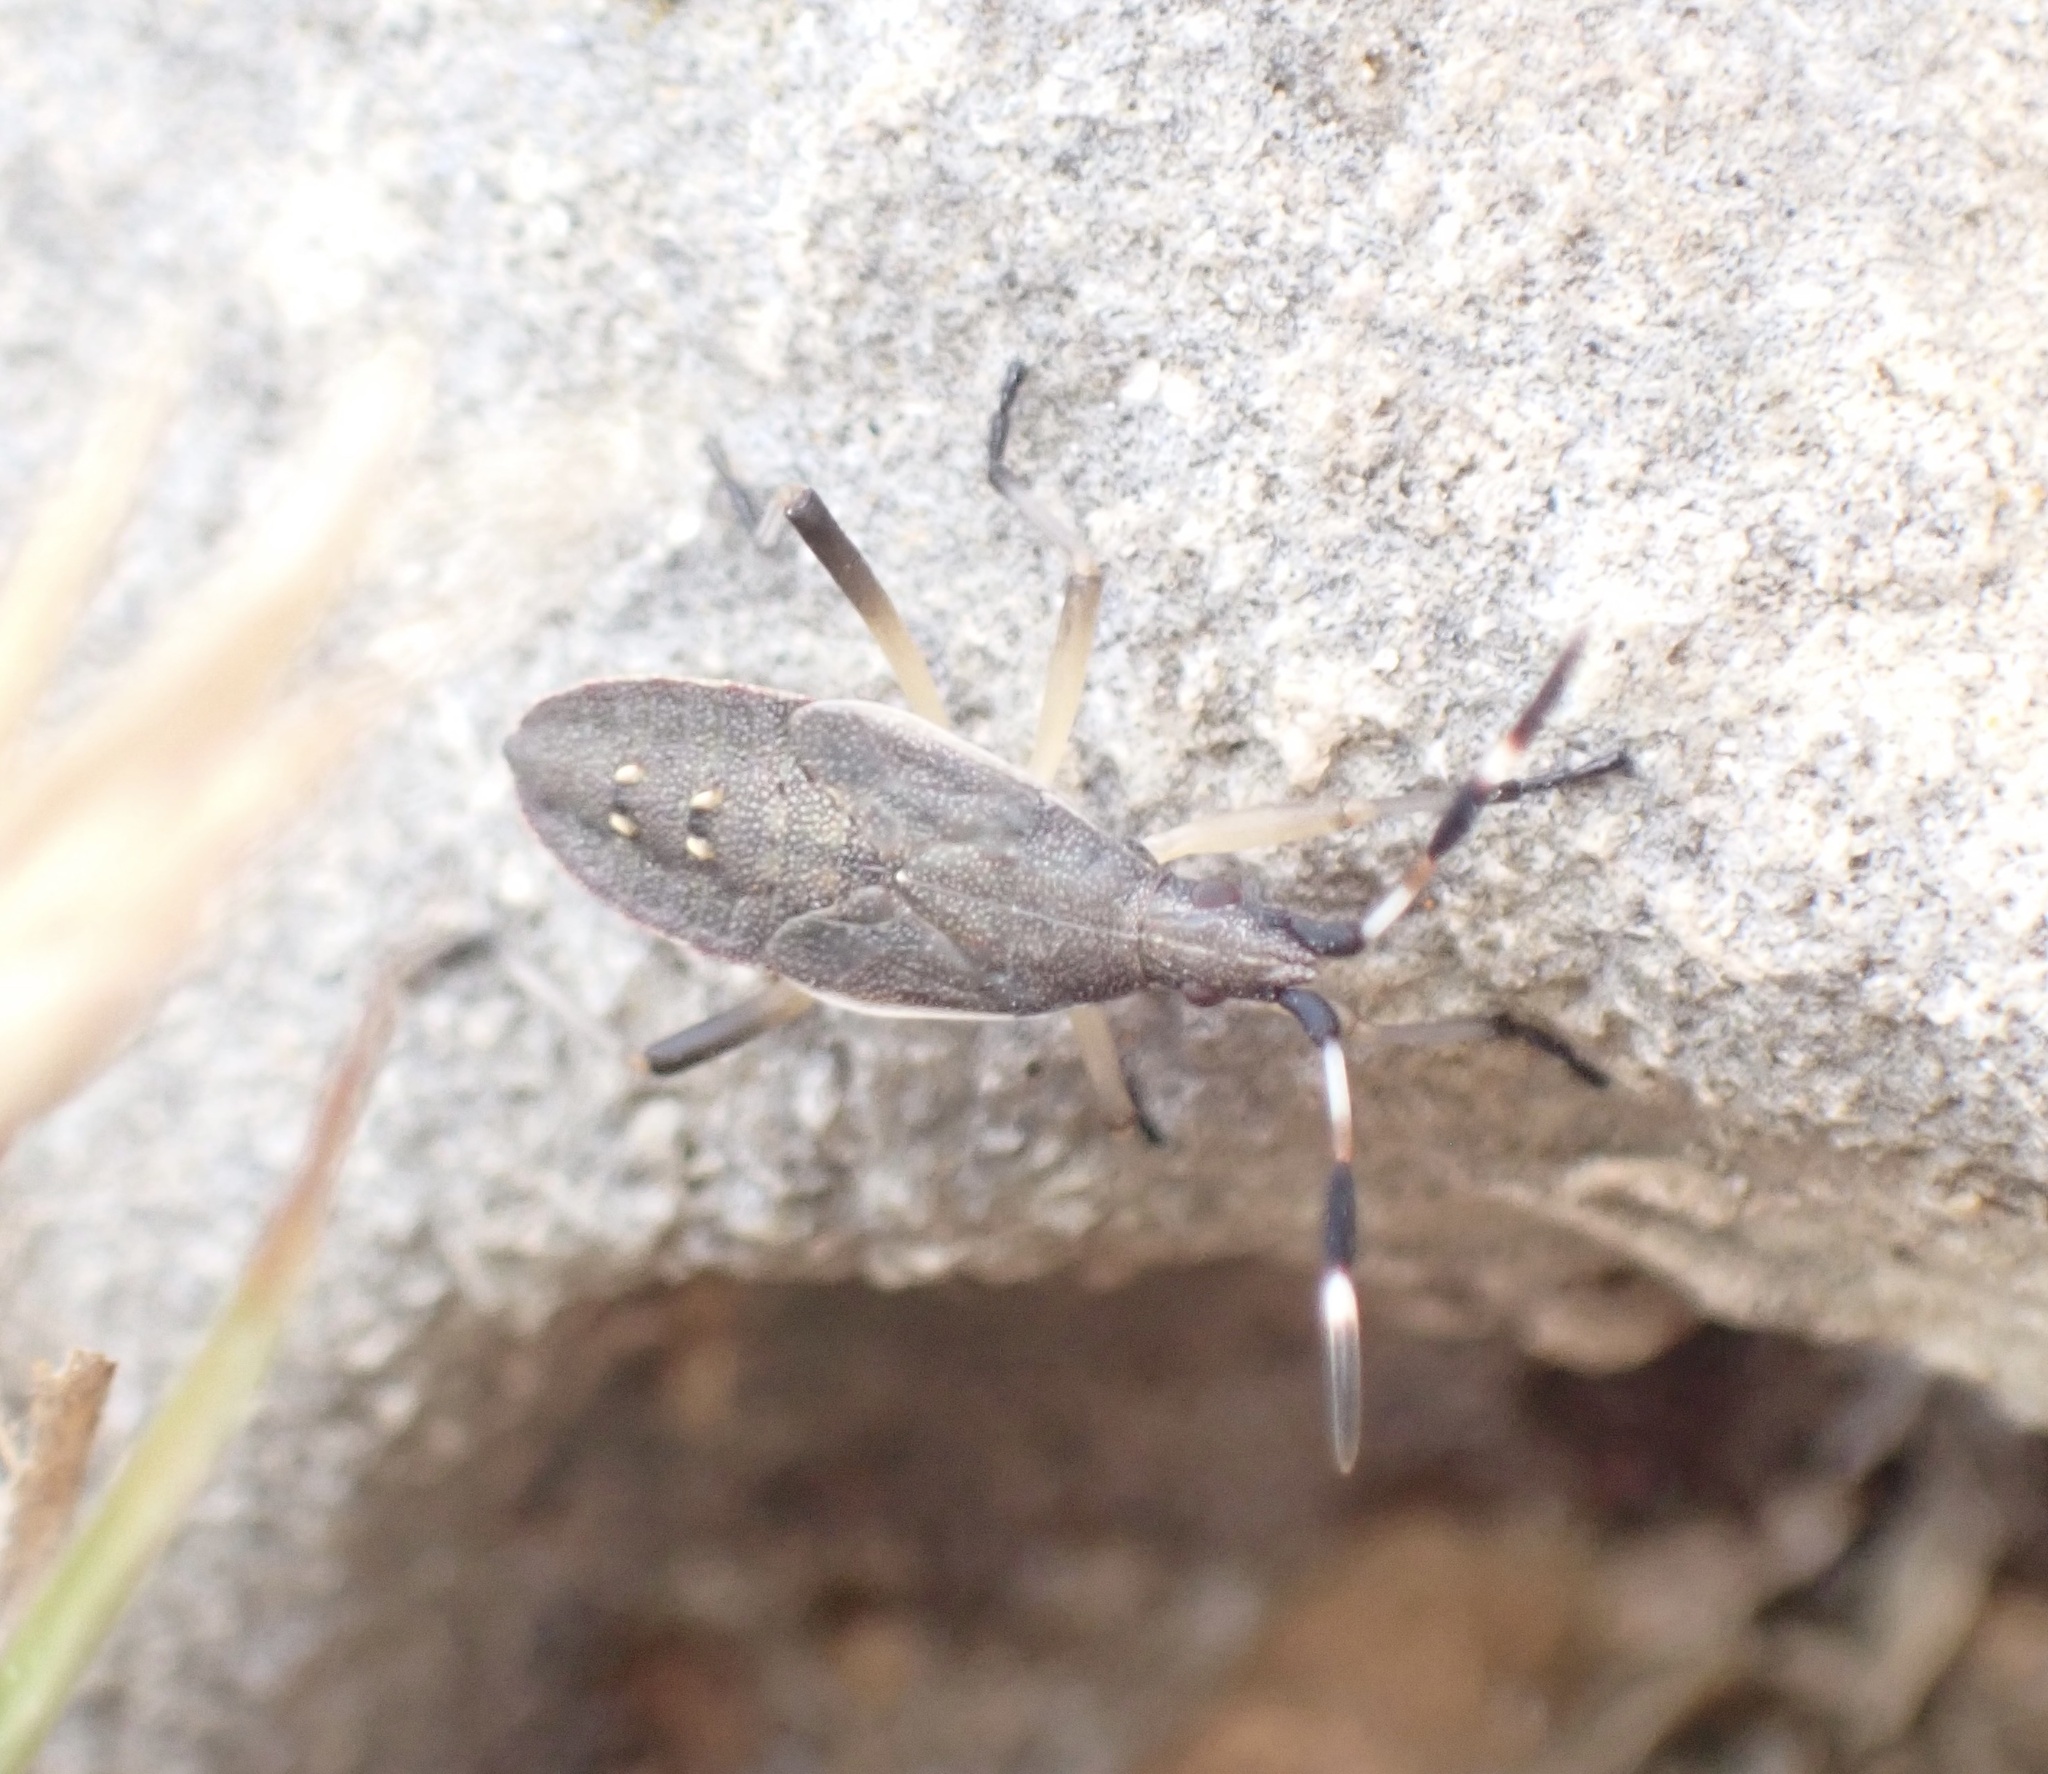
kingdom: Animalia
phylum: Arthropoda
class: Insecta
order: Hemiptera
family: Stenocephalidae
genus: Dicranocephalus
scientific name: Dicranocephalus
